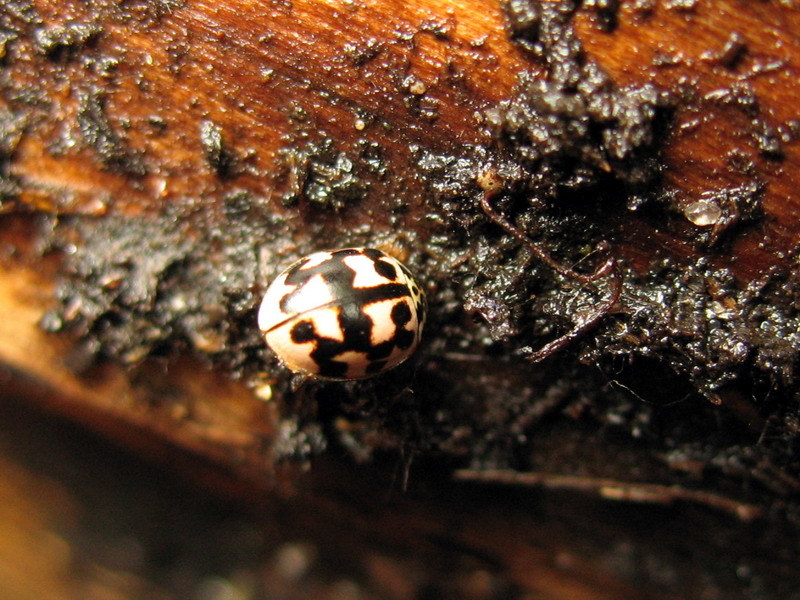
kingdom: Animalia
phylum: Arthropoda
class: Insecta
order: Coleoptera
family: Coccinellidae
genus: Oenopia
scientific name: Oenopia conglobata
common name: Ladybird beetle
